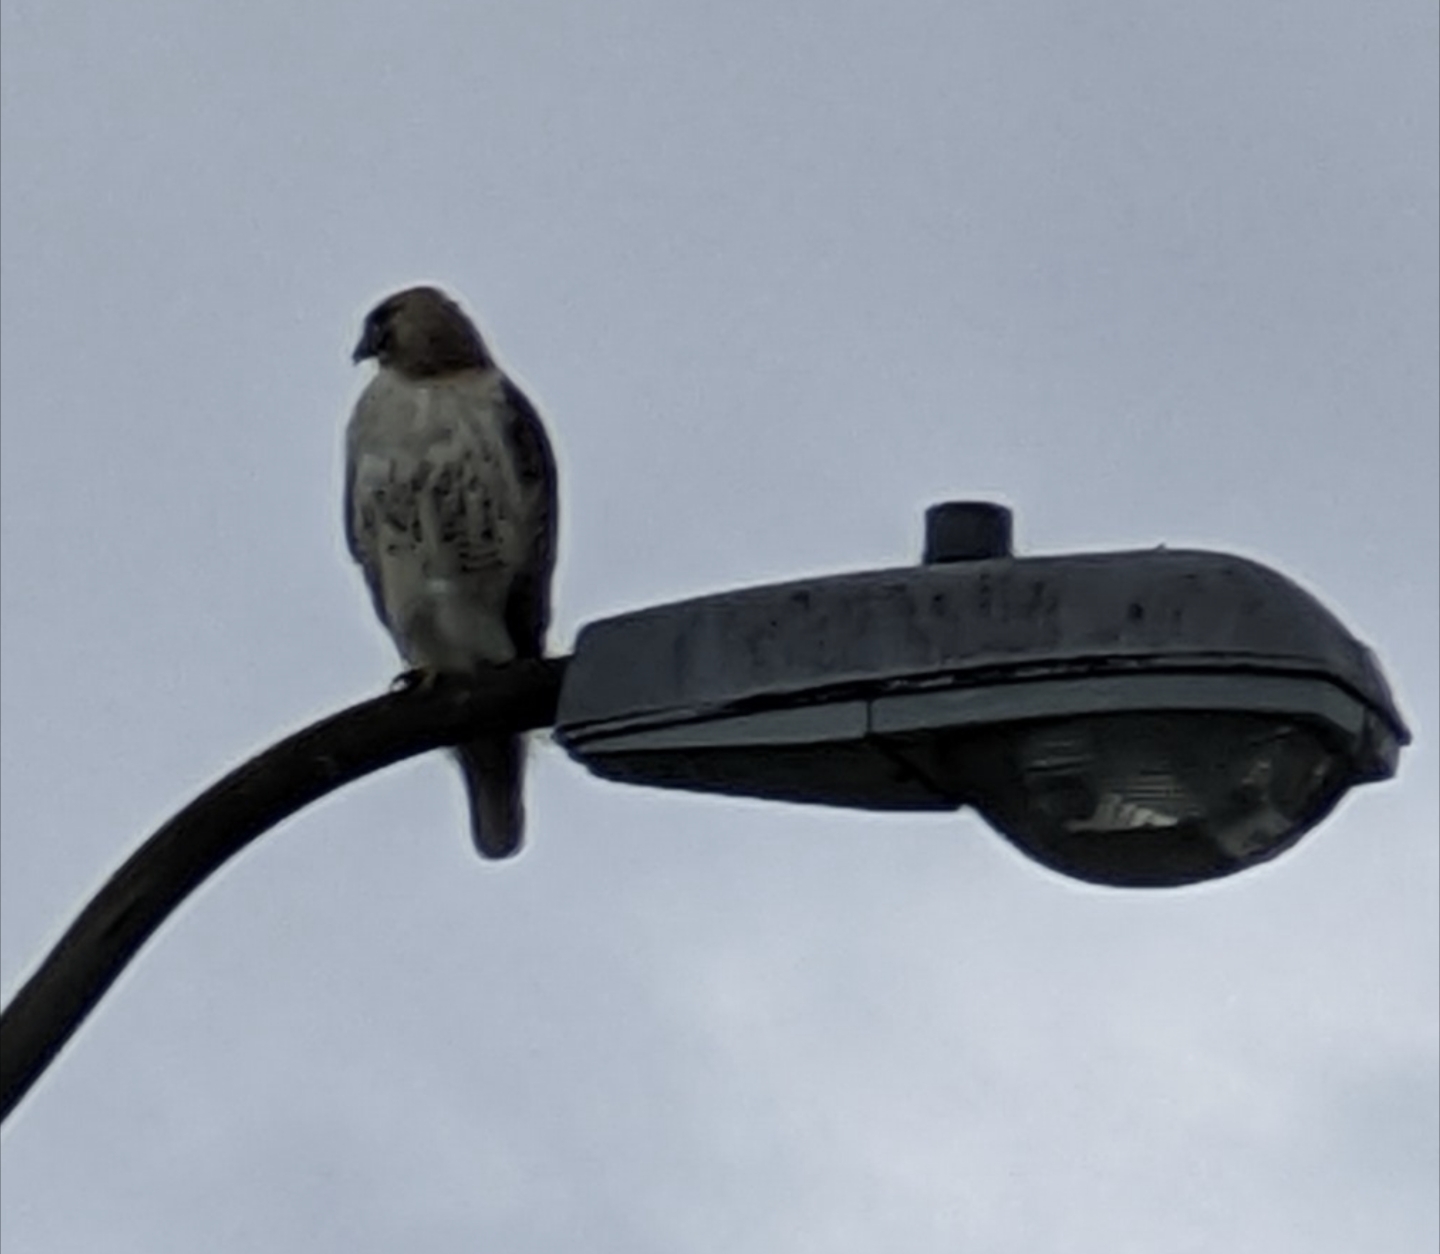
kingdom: Animalia
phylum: Chordata
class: Aves
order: Accipitriformes
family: Accipitridae
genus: Buteo
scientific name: Buteo jamaicensis
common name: Red-tailed hawk
